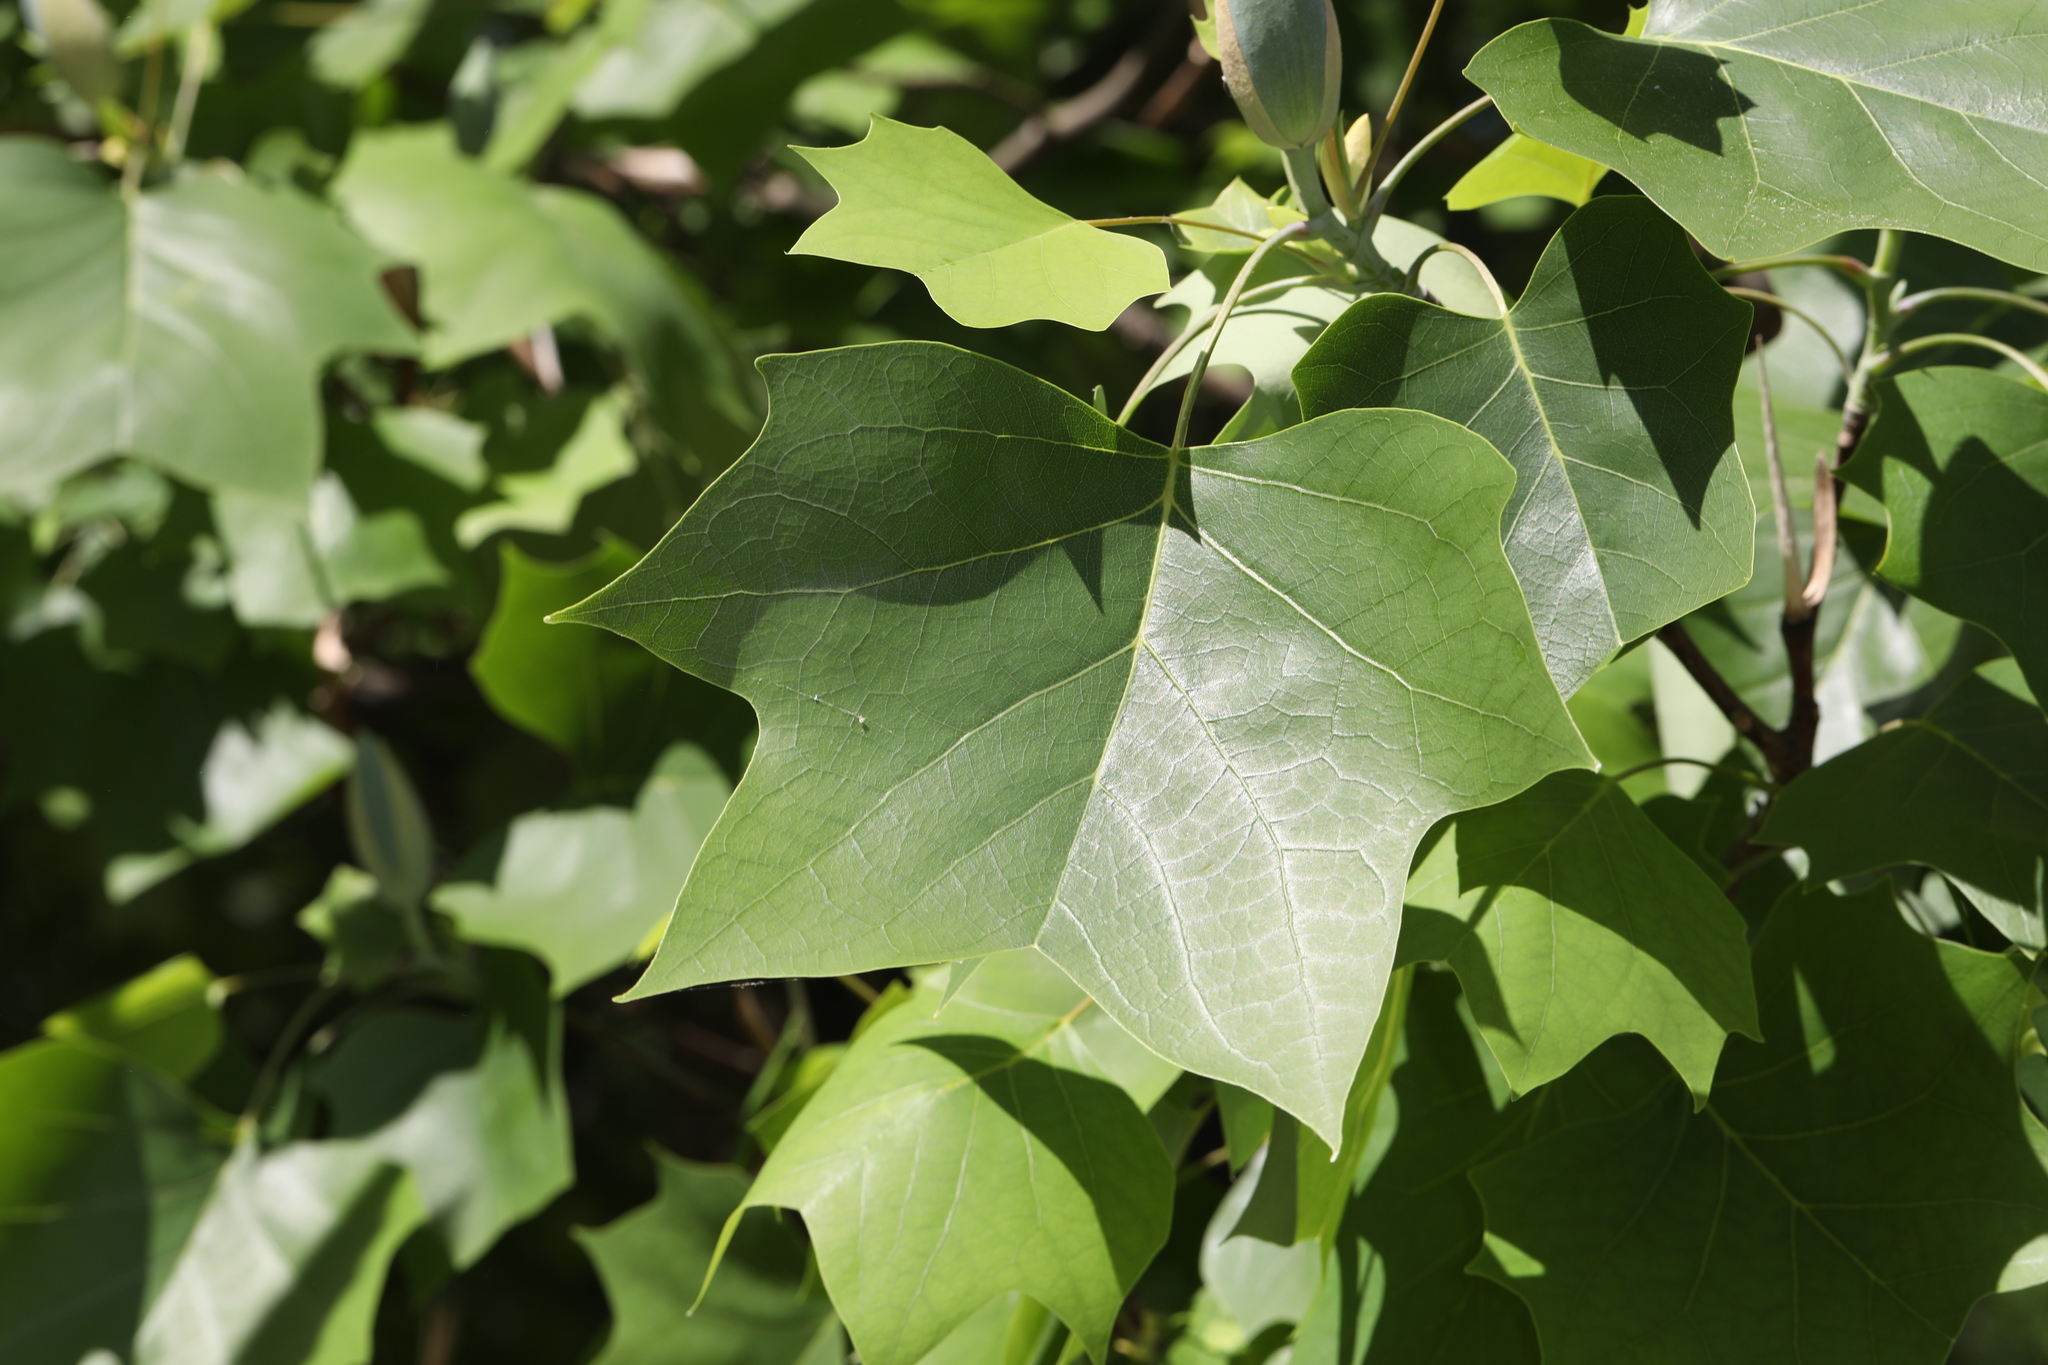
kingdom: Plantae
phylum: Tracheophyta
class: Magnoliopsida
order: Magnoliales
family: Magnoliaceae
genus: Liriodendron
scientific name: Liriodendron tulipifera
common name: Tulip tree
